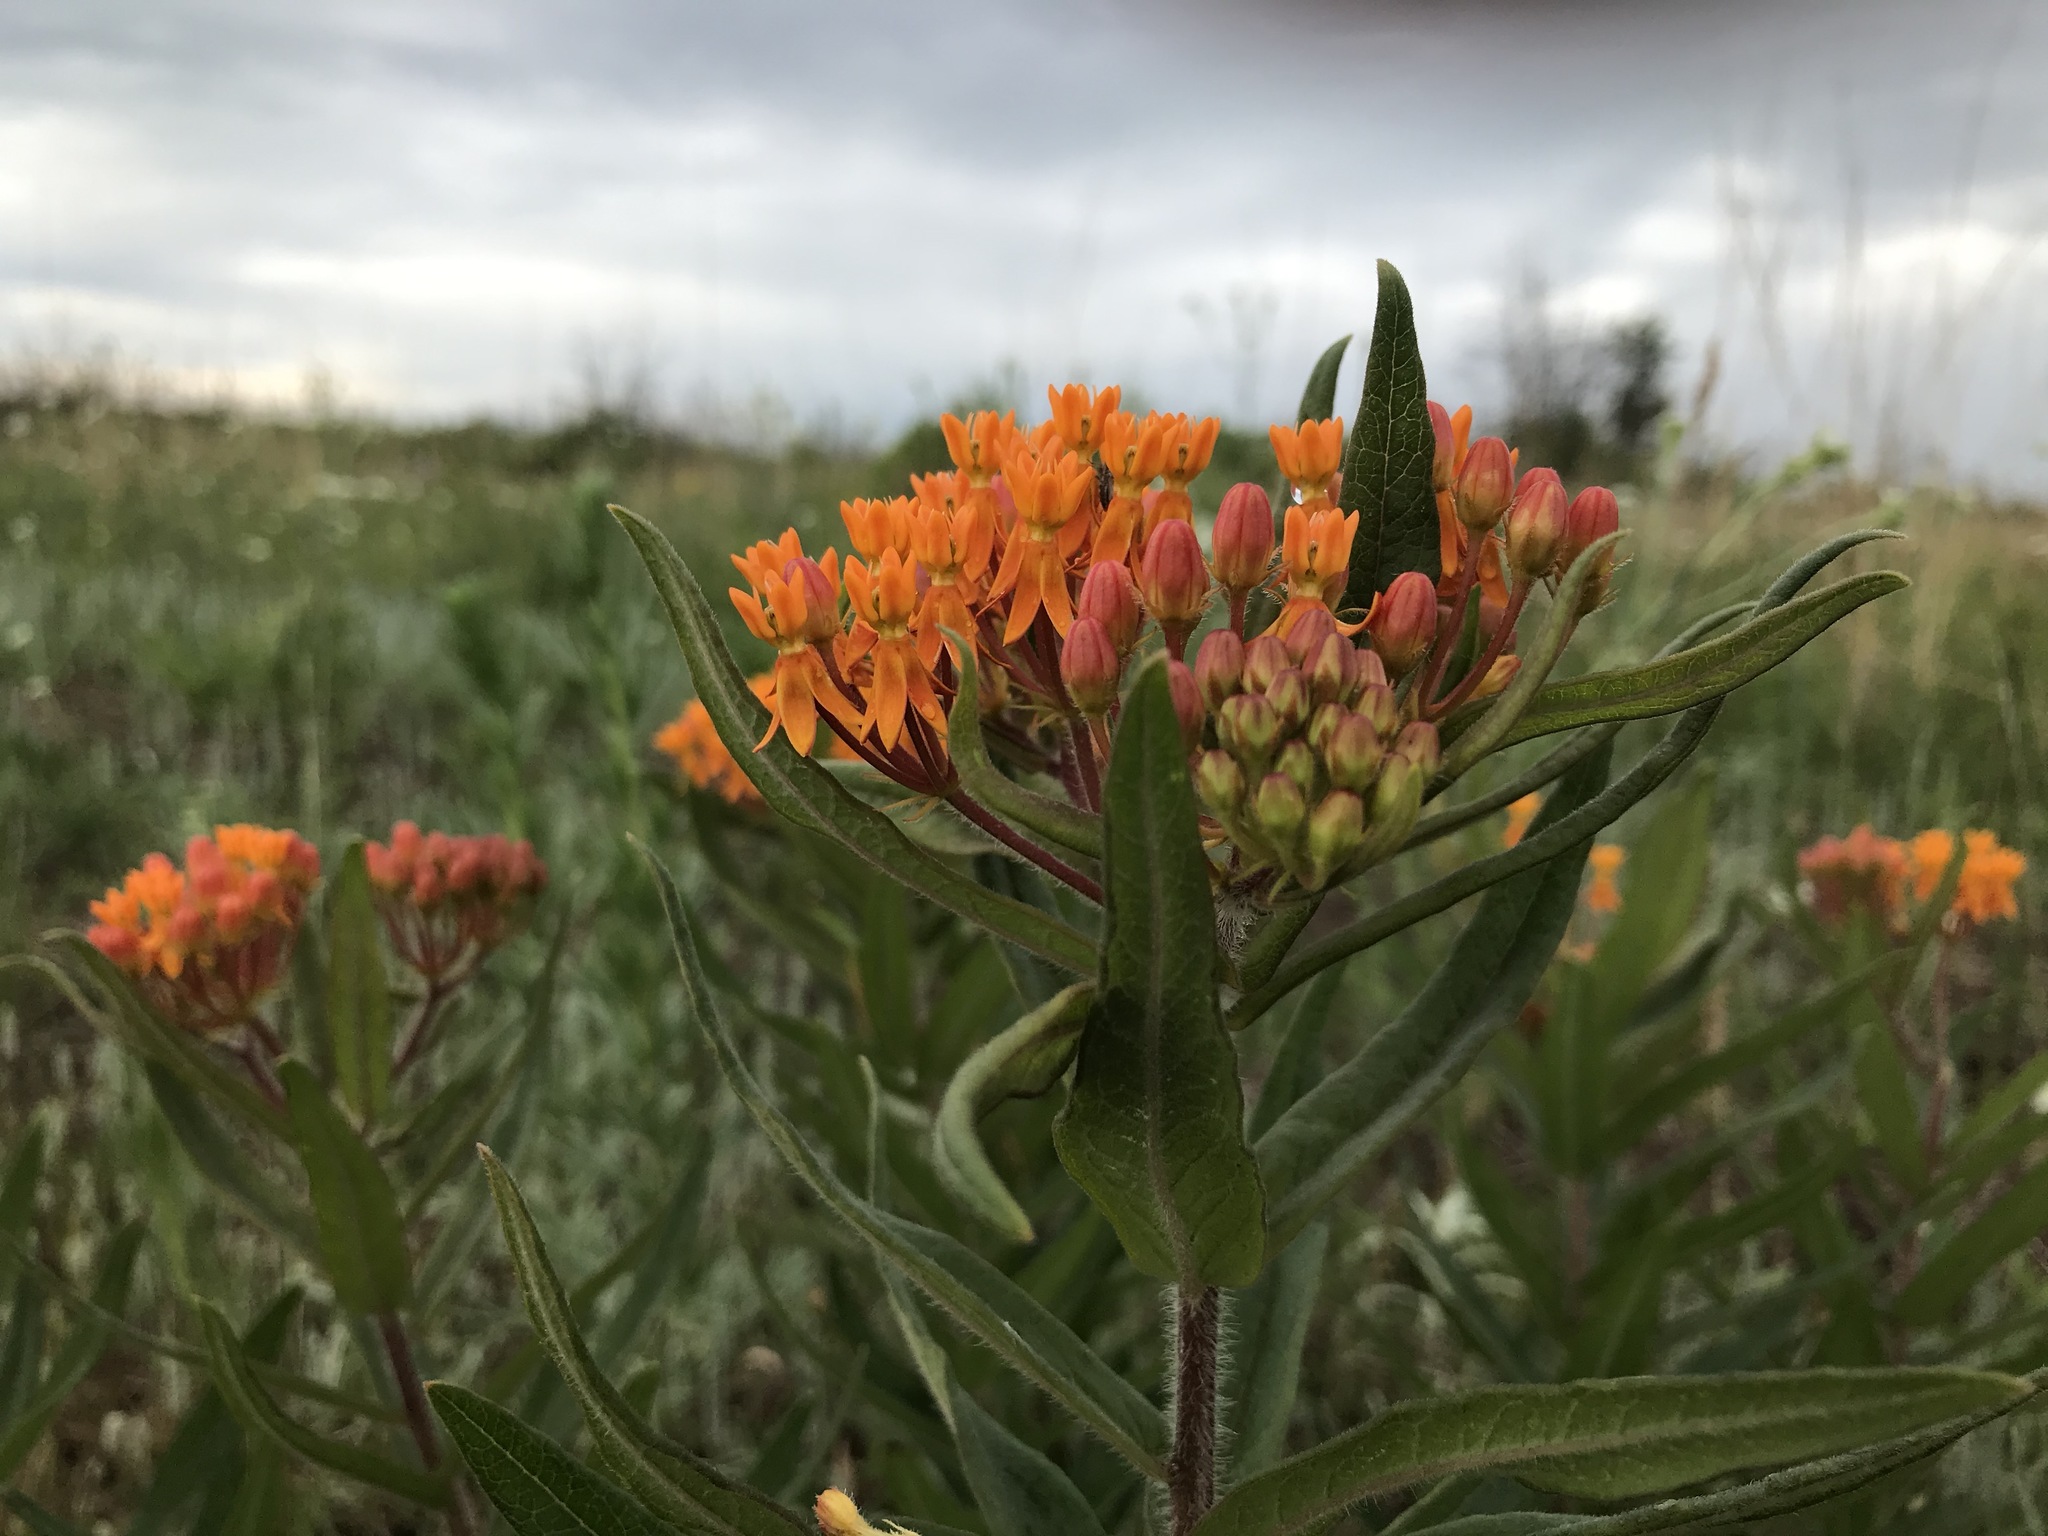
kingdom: Plantae
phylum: Tracheophyta
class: Magnoliopsida
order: Gentianales
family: Apocynaceae
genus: Asclepias
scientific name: Asclepias tuberosa
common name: Butterfly milkweed
